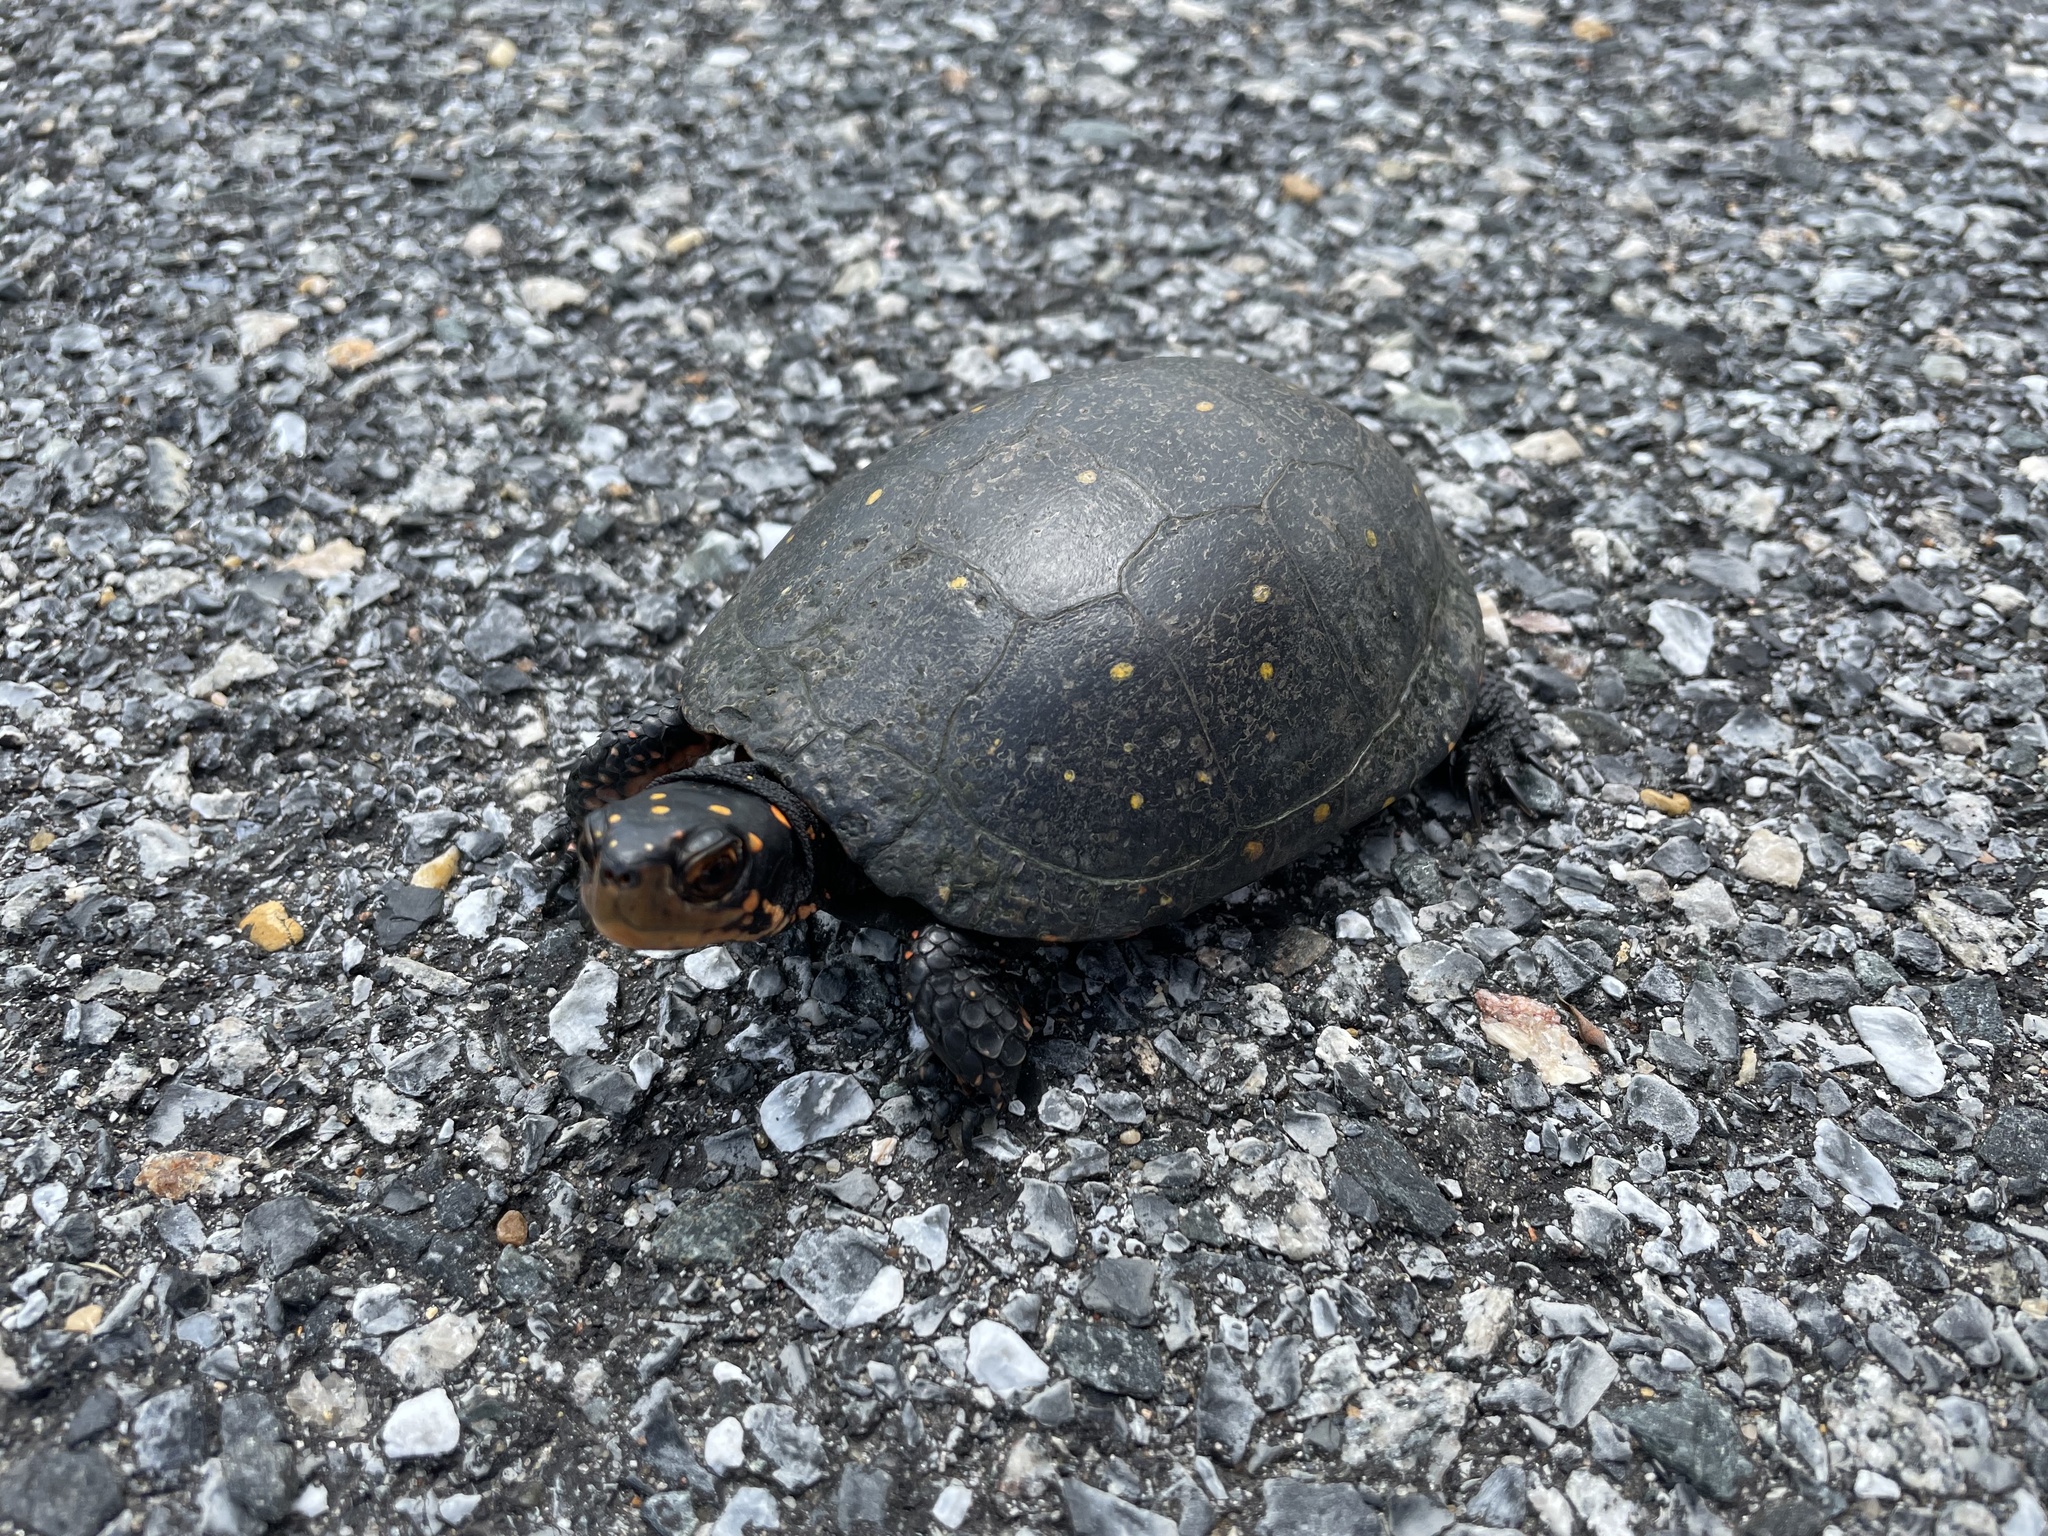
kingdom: Animalia
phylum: Chordata
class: Testudines
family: Emydidae
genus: Clemmys
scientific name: Clemmys guttata
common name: Spotted turtle
